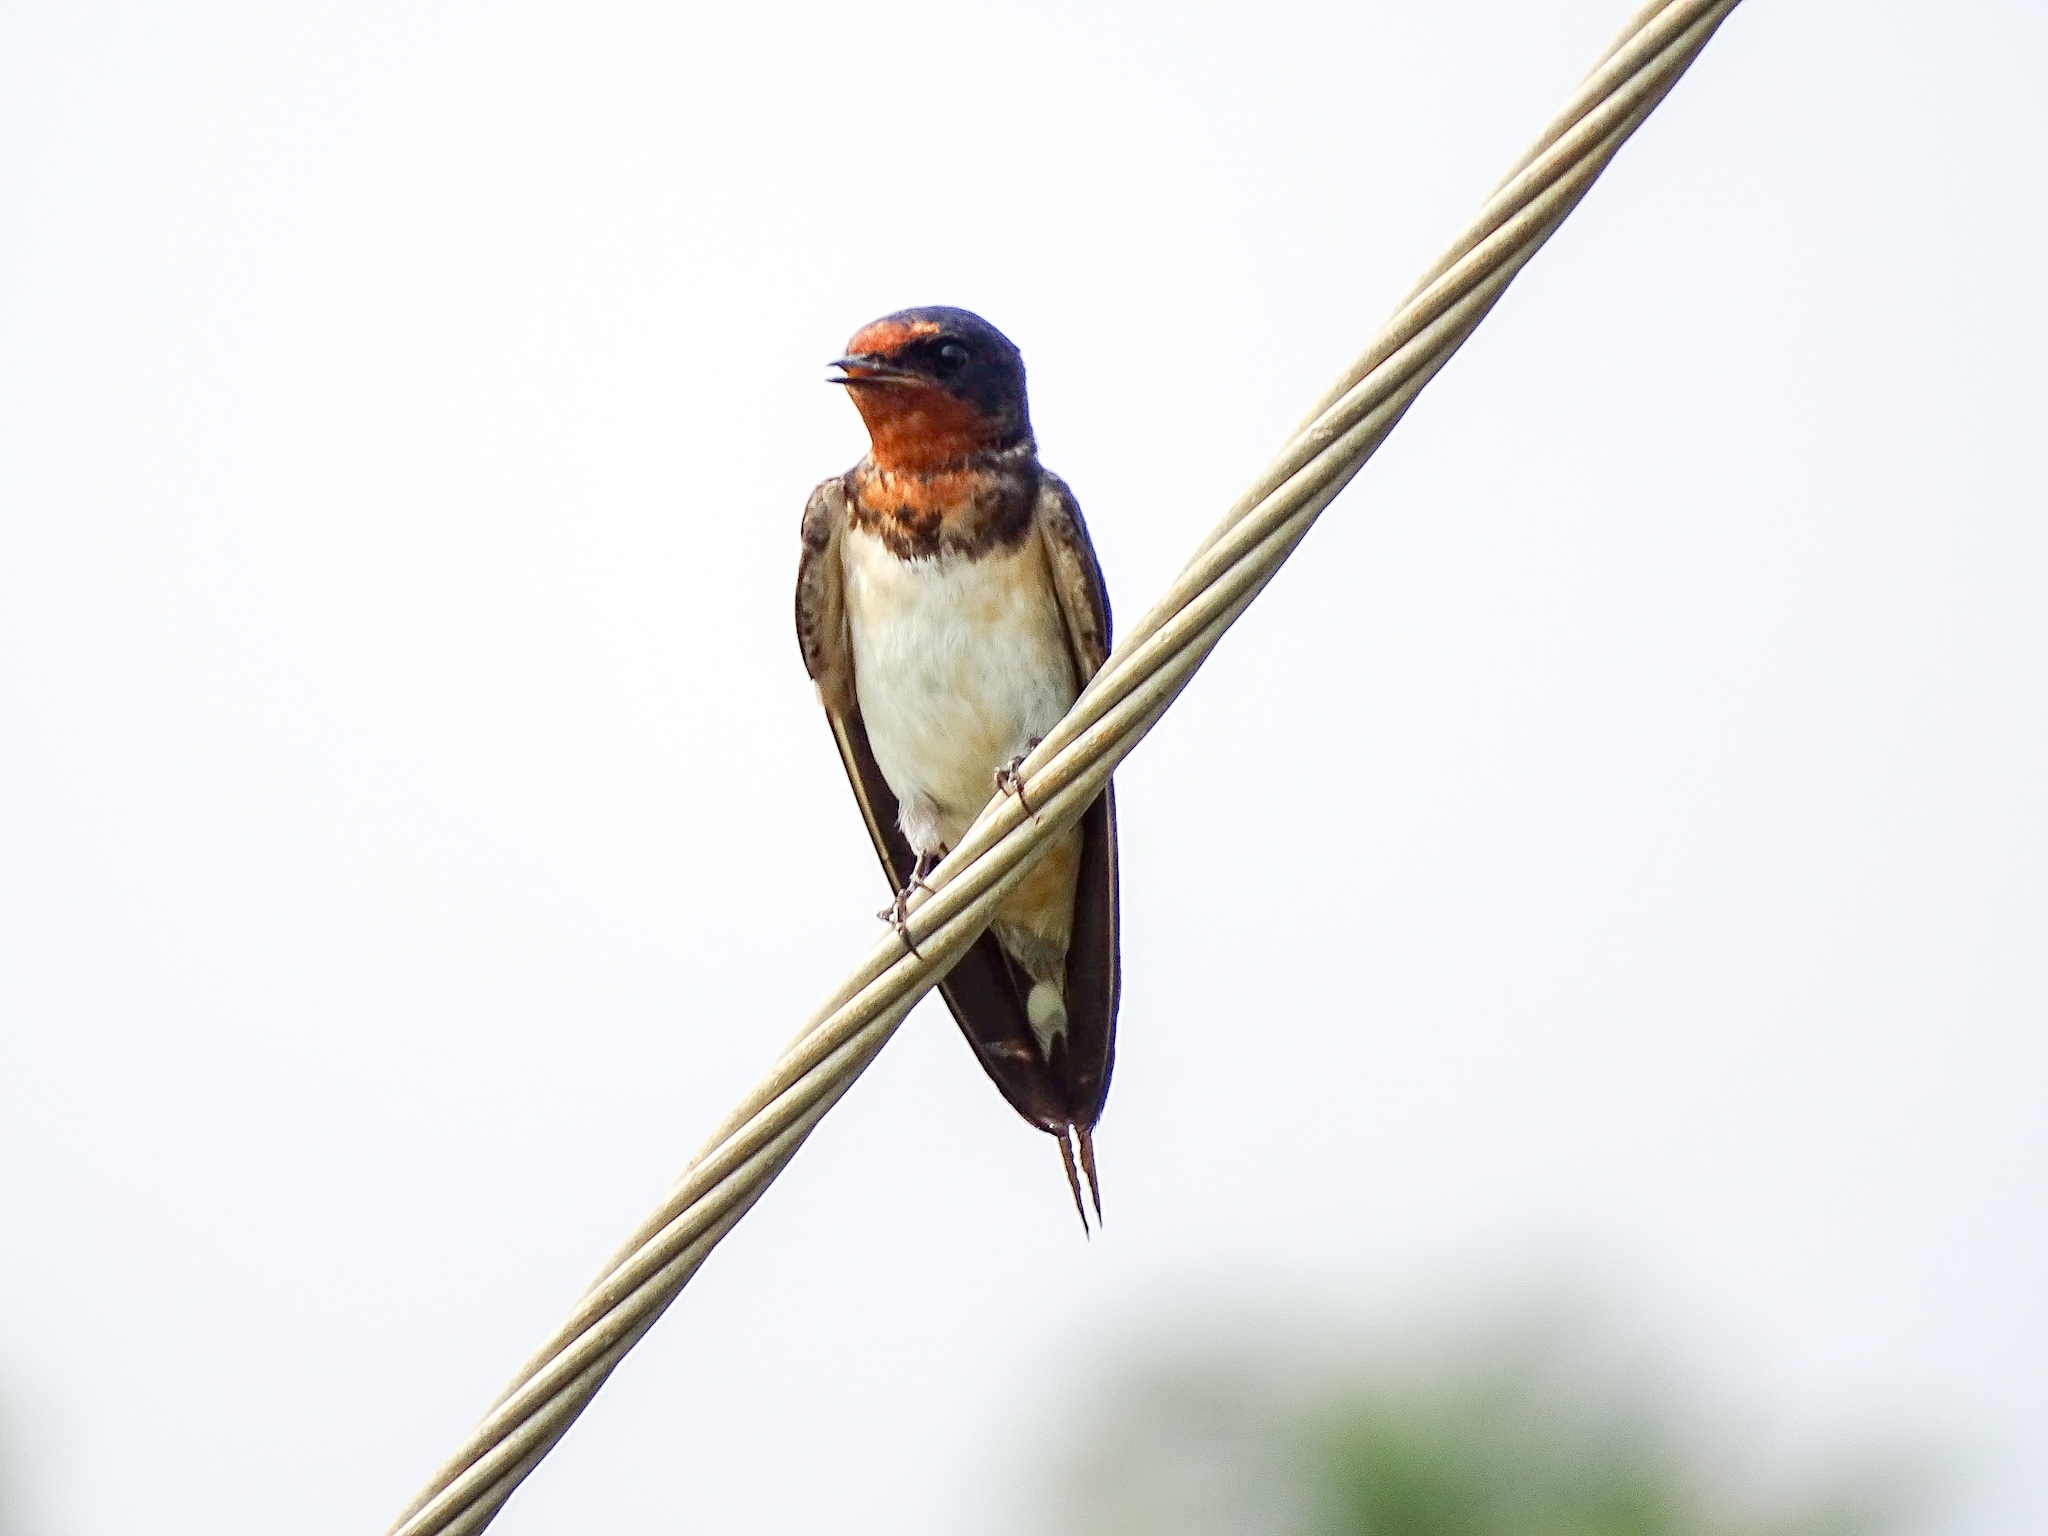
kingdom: Animalia
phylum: Chordata
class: Aves
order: Passeriformes
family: Hirundinidae
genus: Hirundo
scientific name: Hirundo rustica
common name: Barn swallow
